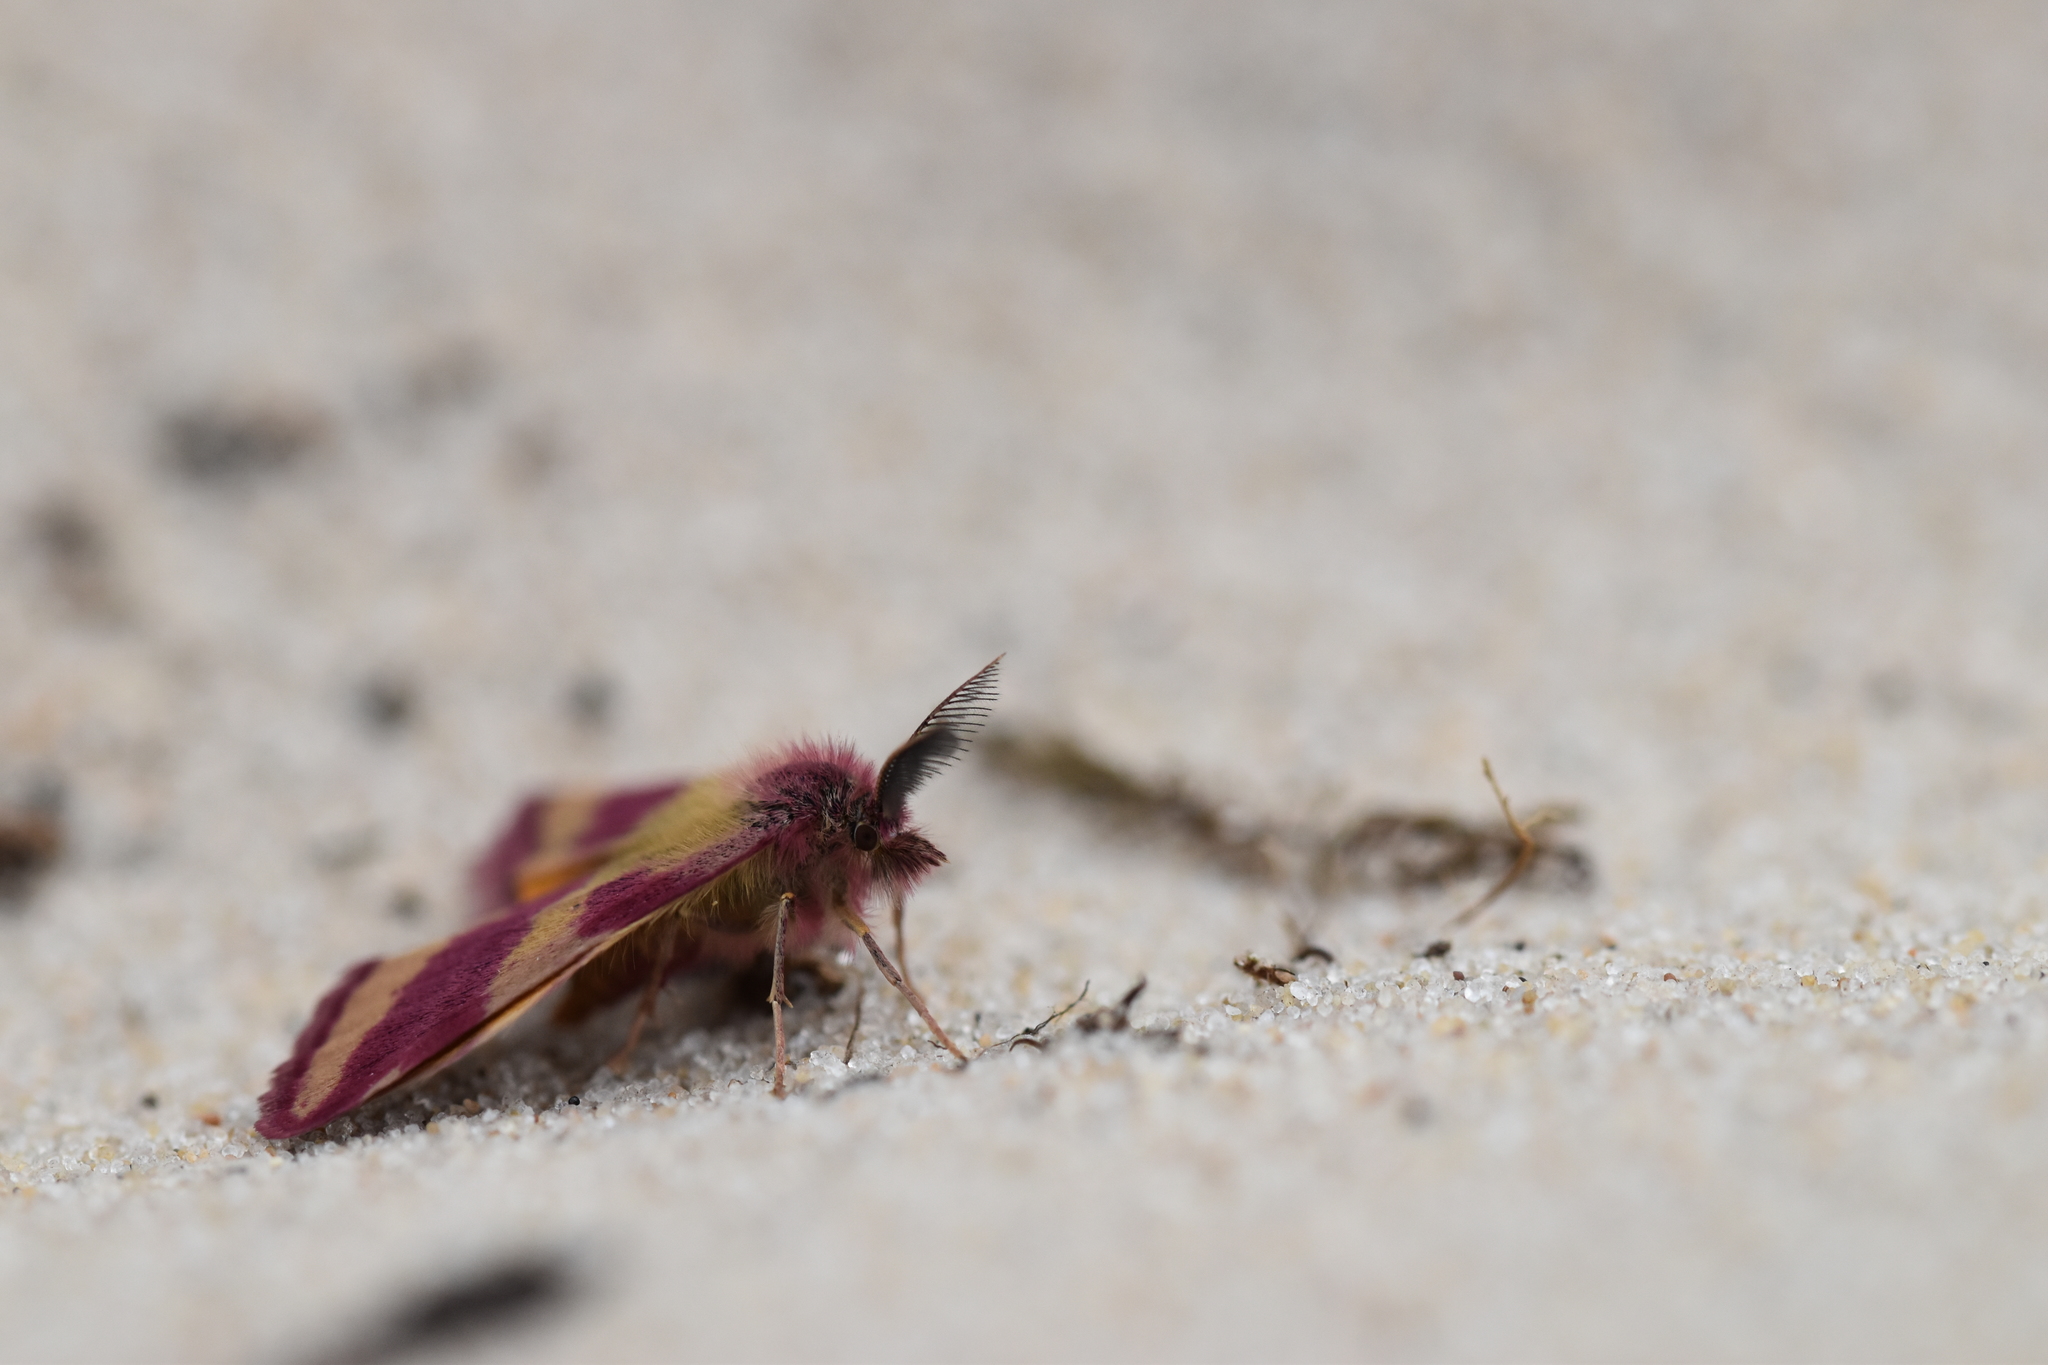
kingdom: Animalia
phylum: Arthropoda
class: Insecta
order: Lepidoptera
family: Geometridae
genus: Lythria
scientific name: Lythria cruentaria
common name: Purple-barred yellow
